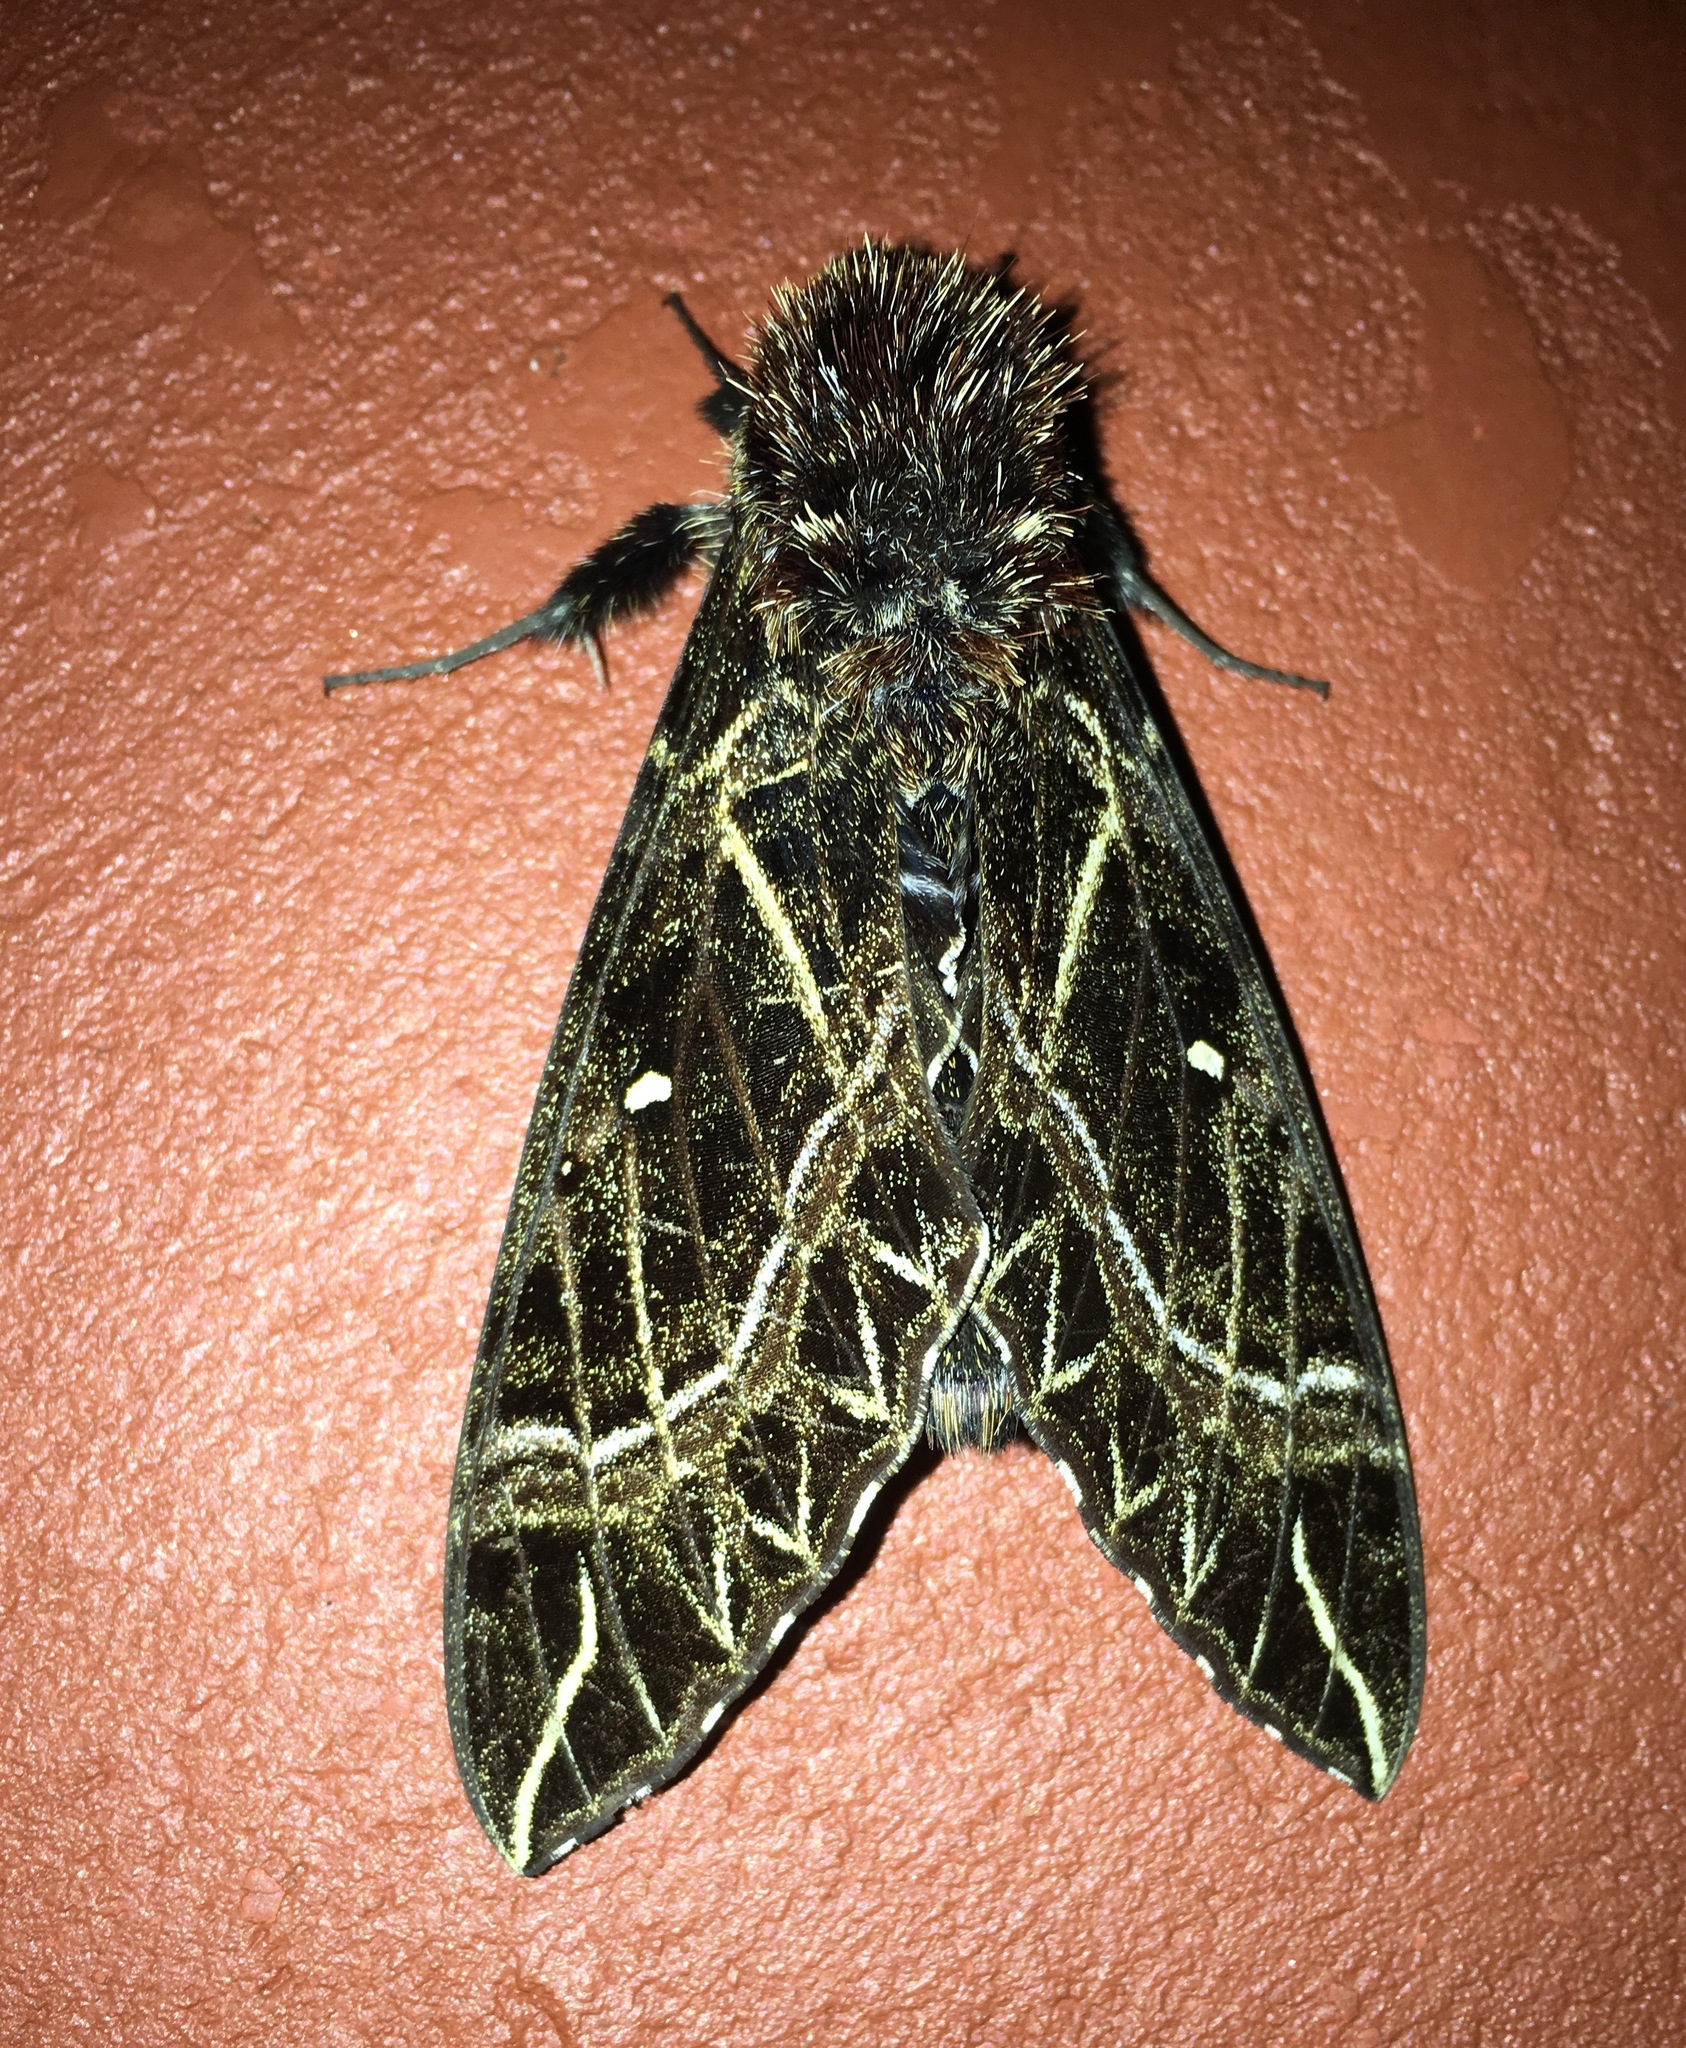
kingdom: Animalia
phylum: Arthropoda
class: Insecta
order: Lepidoptera
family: Sphingidae
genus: Euryglottis
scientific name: Euryglottis aper
